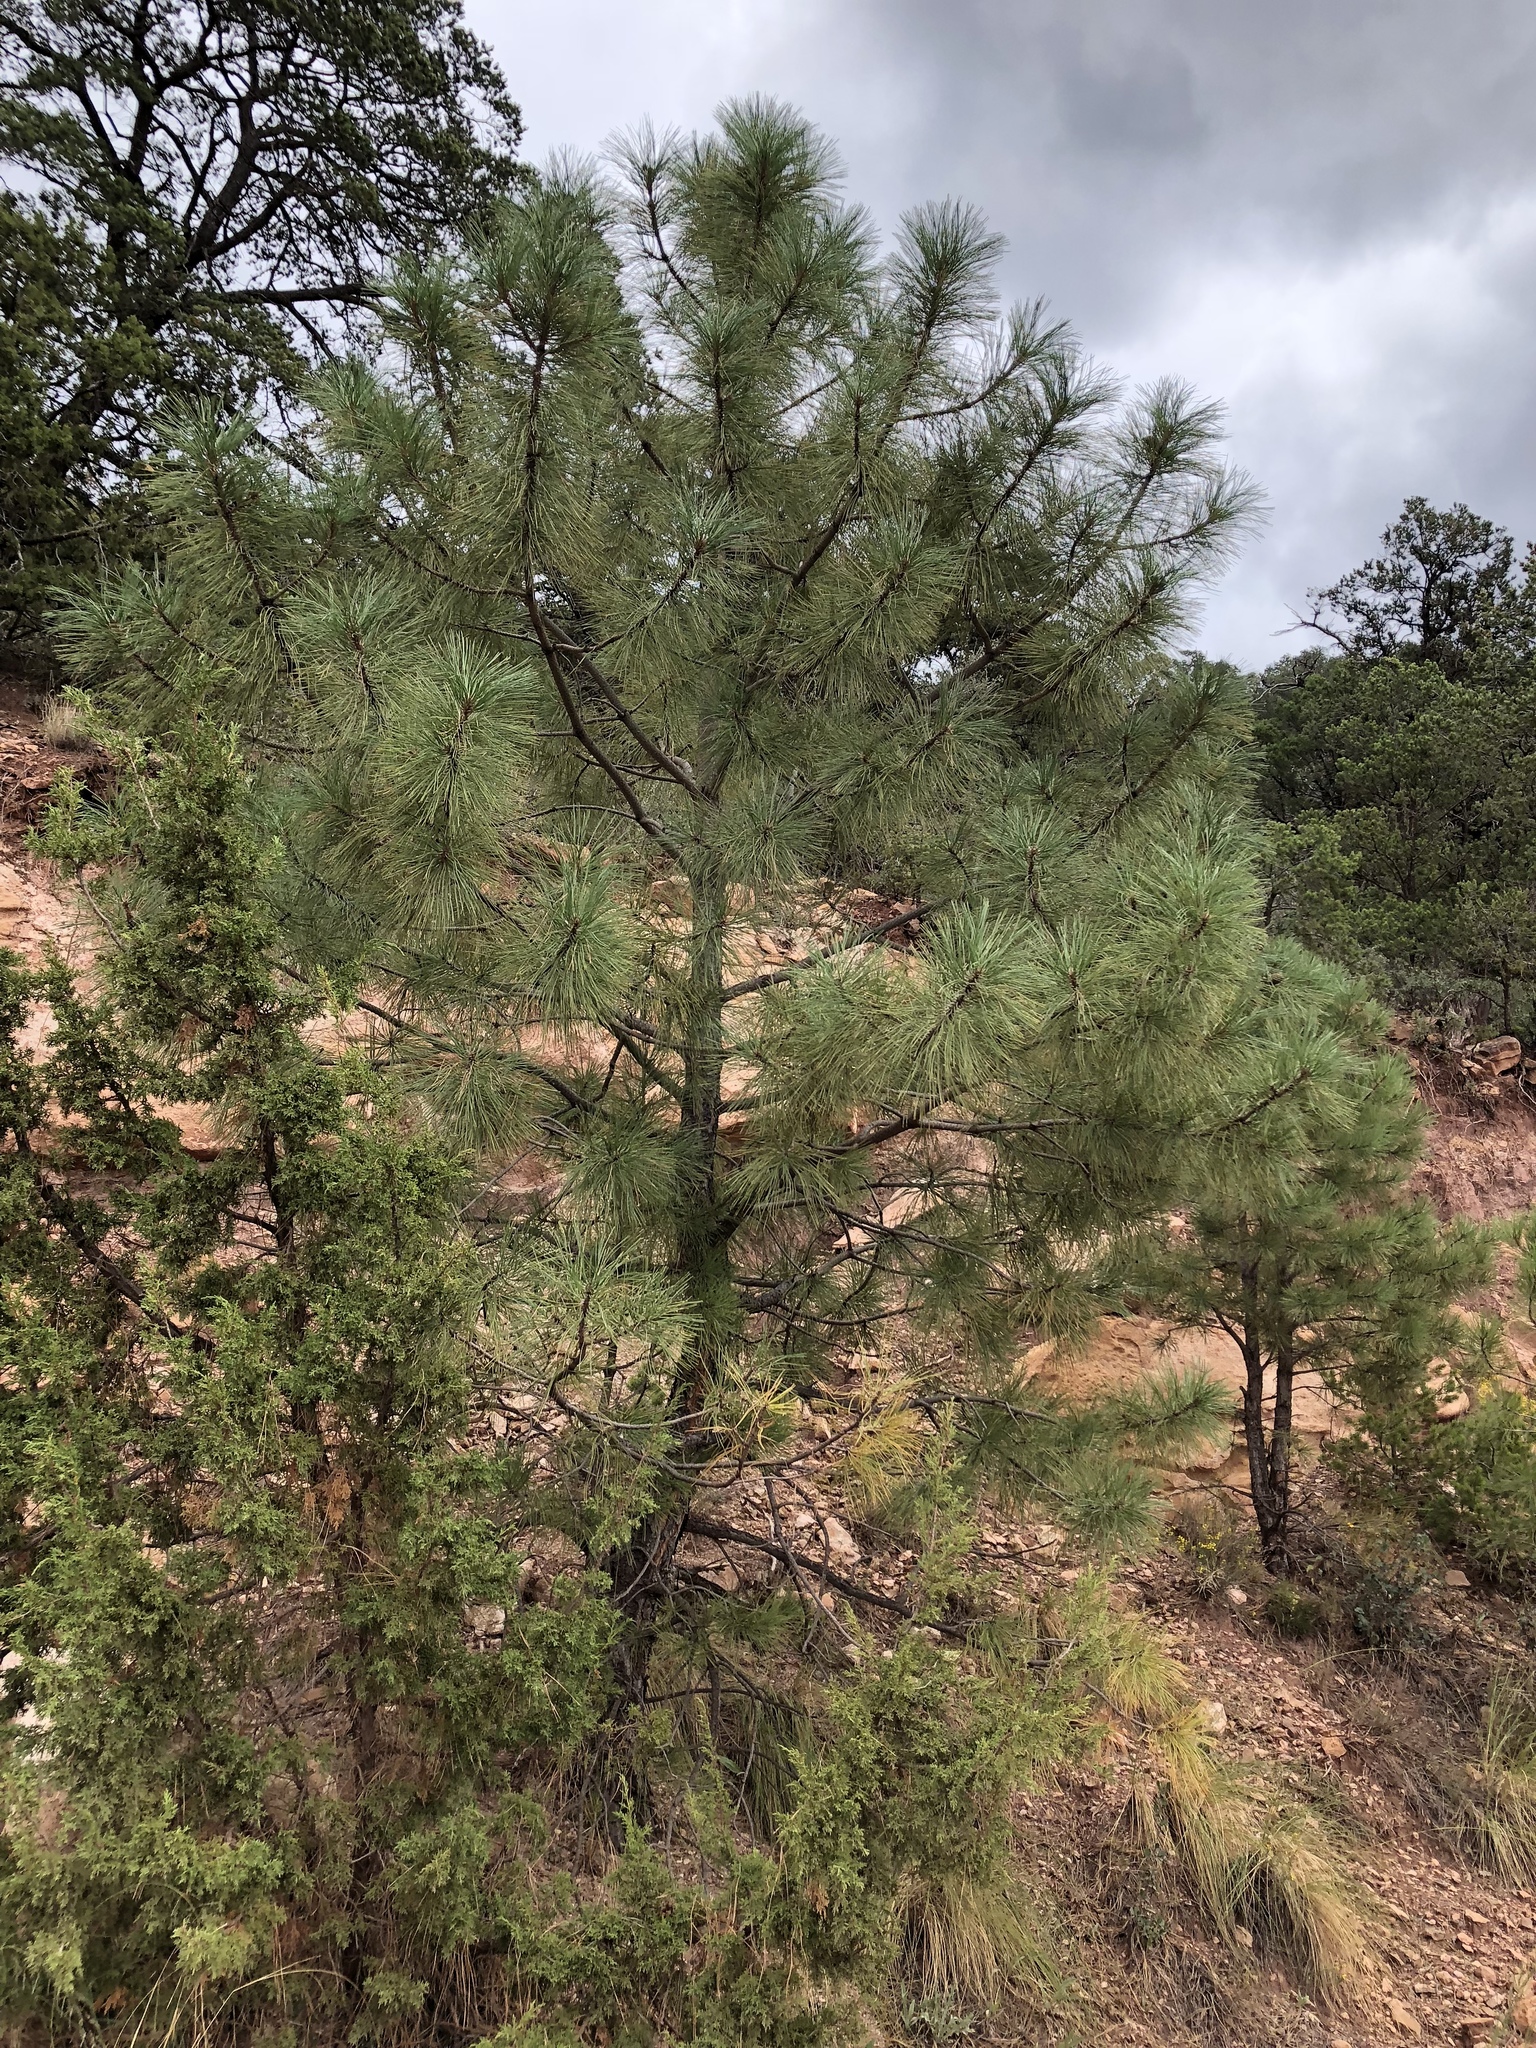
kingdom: Plantae
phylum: Tracheophyta
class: Pinopsida
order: Pinales
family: Pinaceae
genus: Pinus
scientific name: Pinus ponderosa
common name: Western yellow-pine
